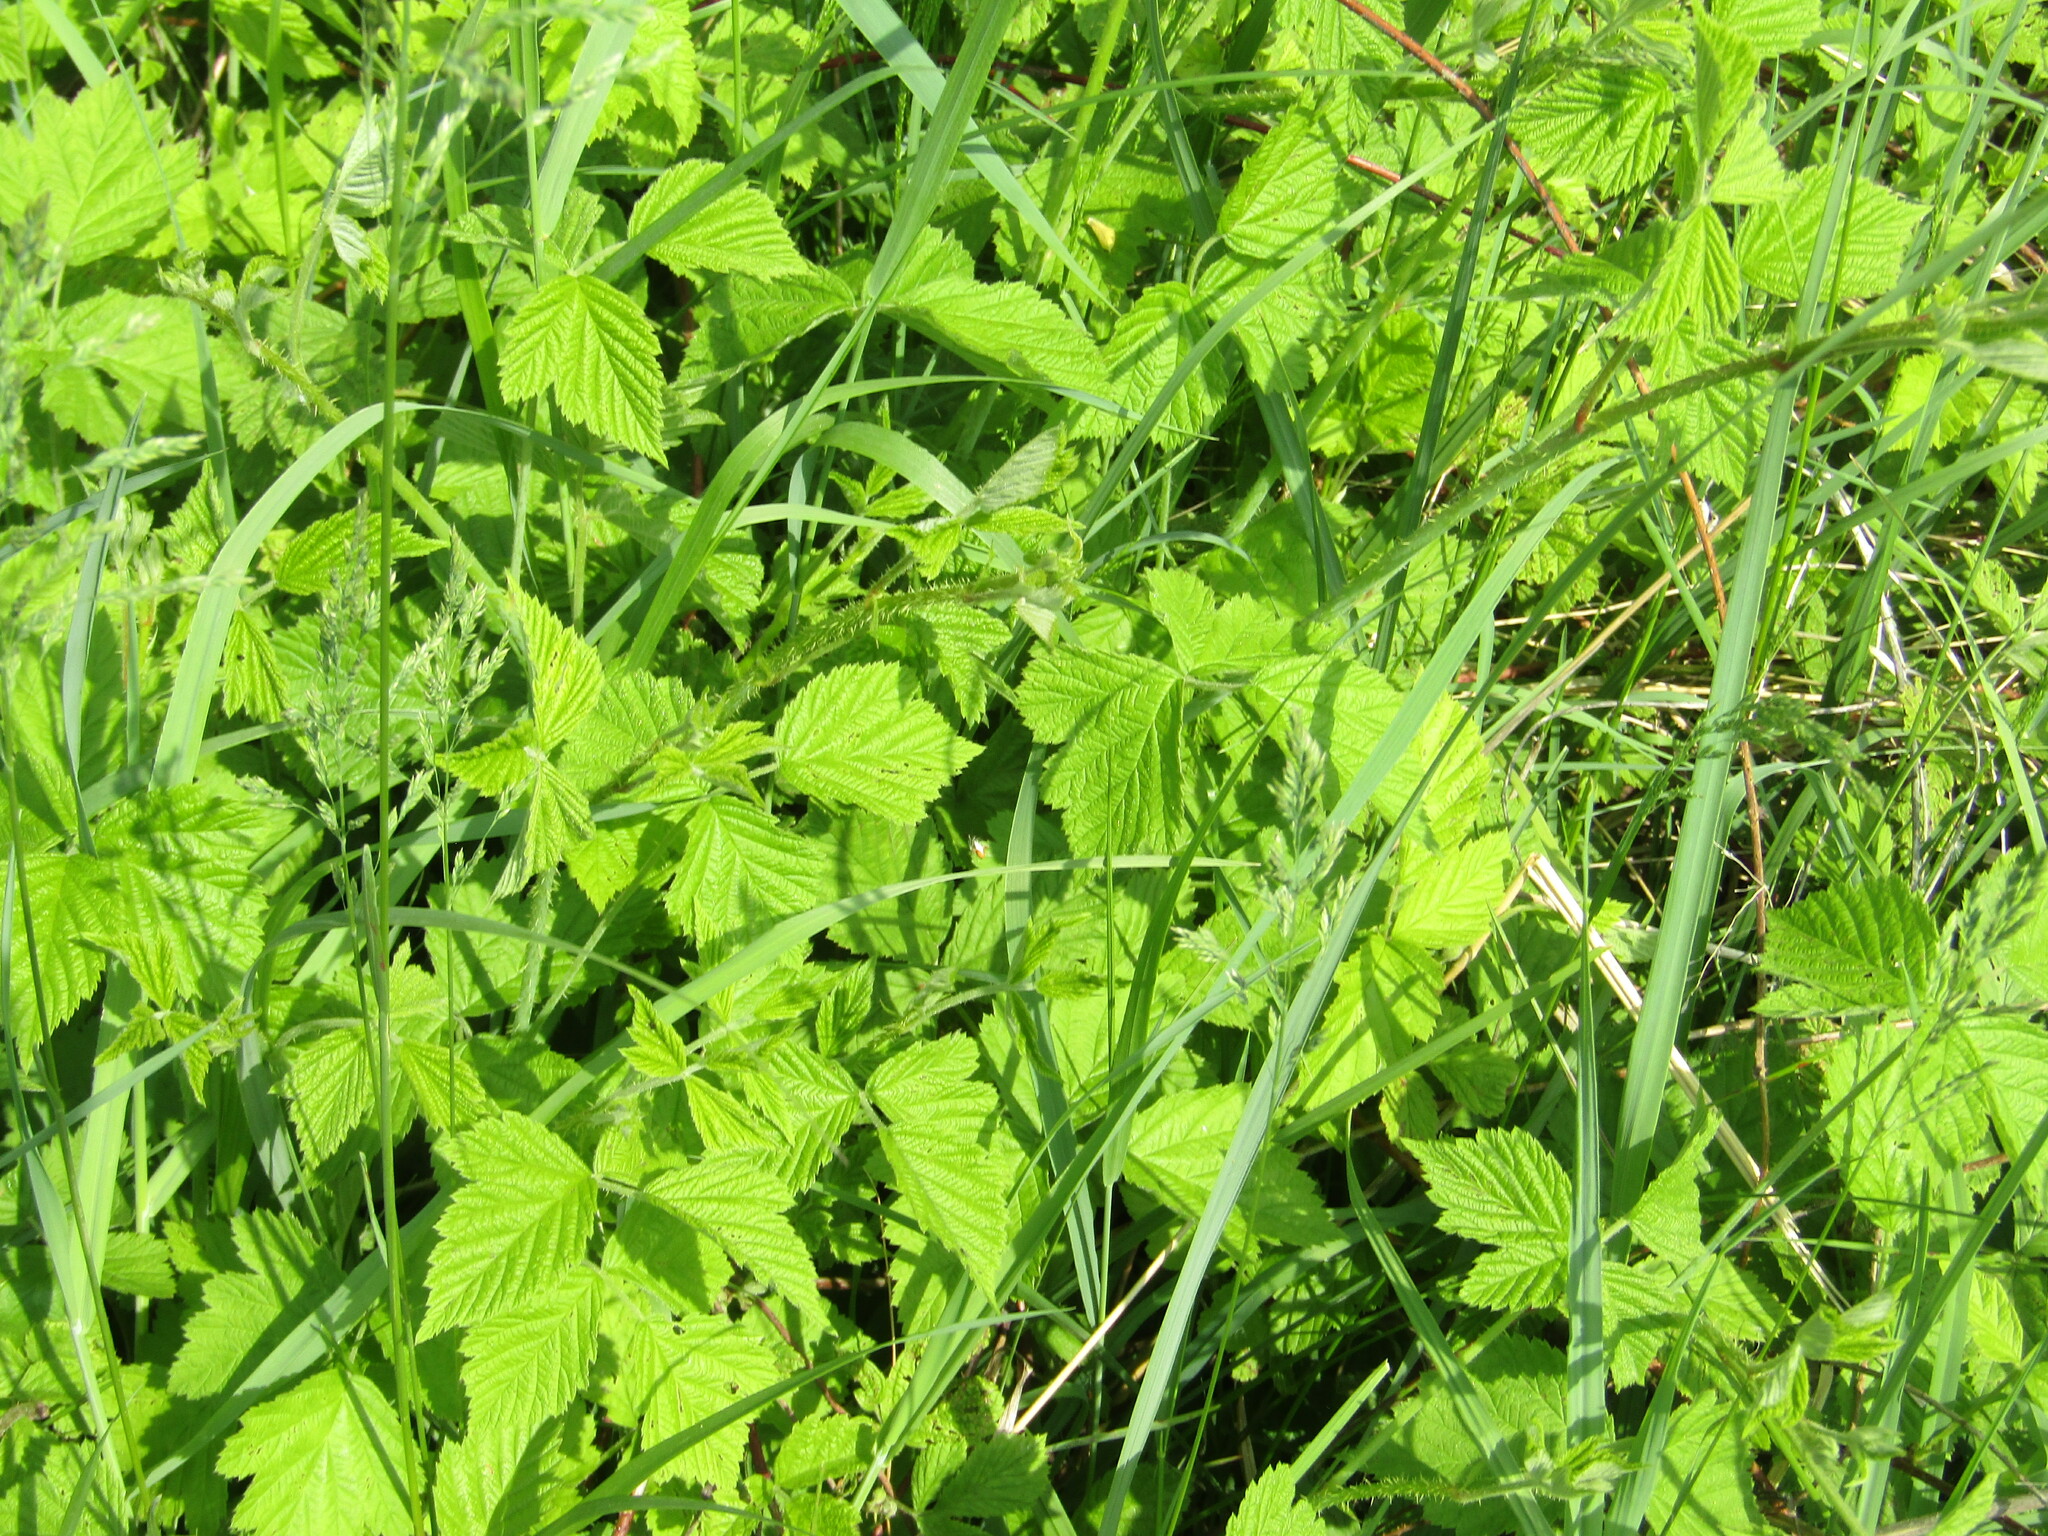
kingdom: Plantae
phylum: Tracheophyta
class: Magnoliopsida
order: Rosales
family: Rosaceae
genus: Rubus
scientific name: Rubus caesius
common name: Dewberry
